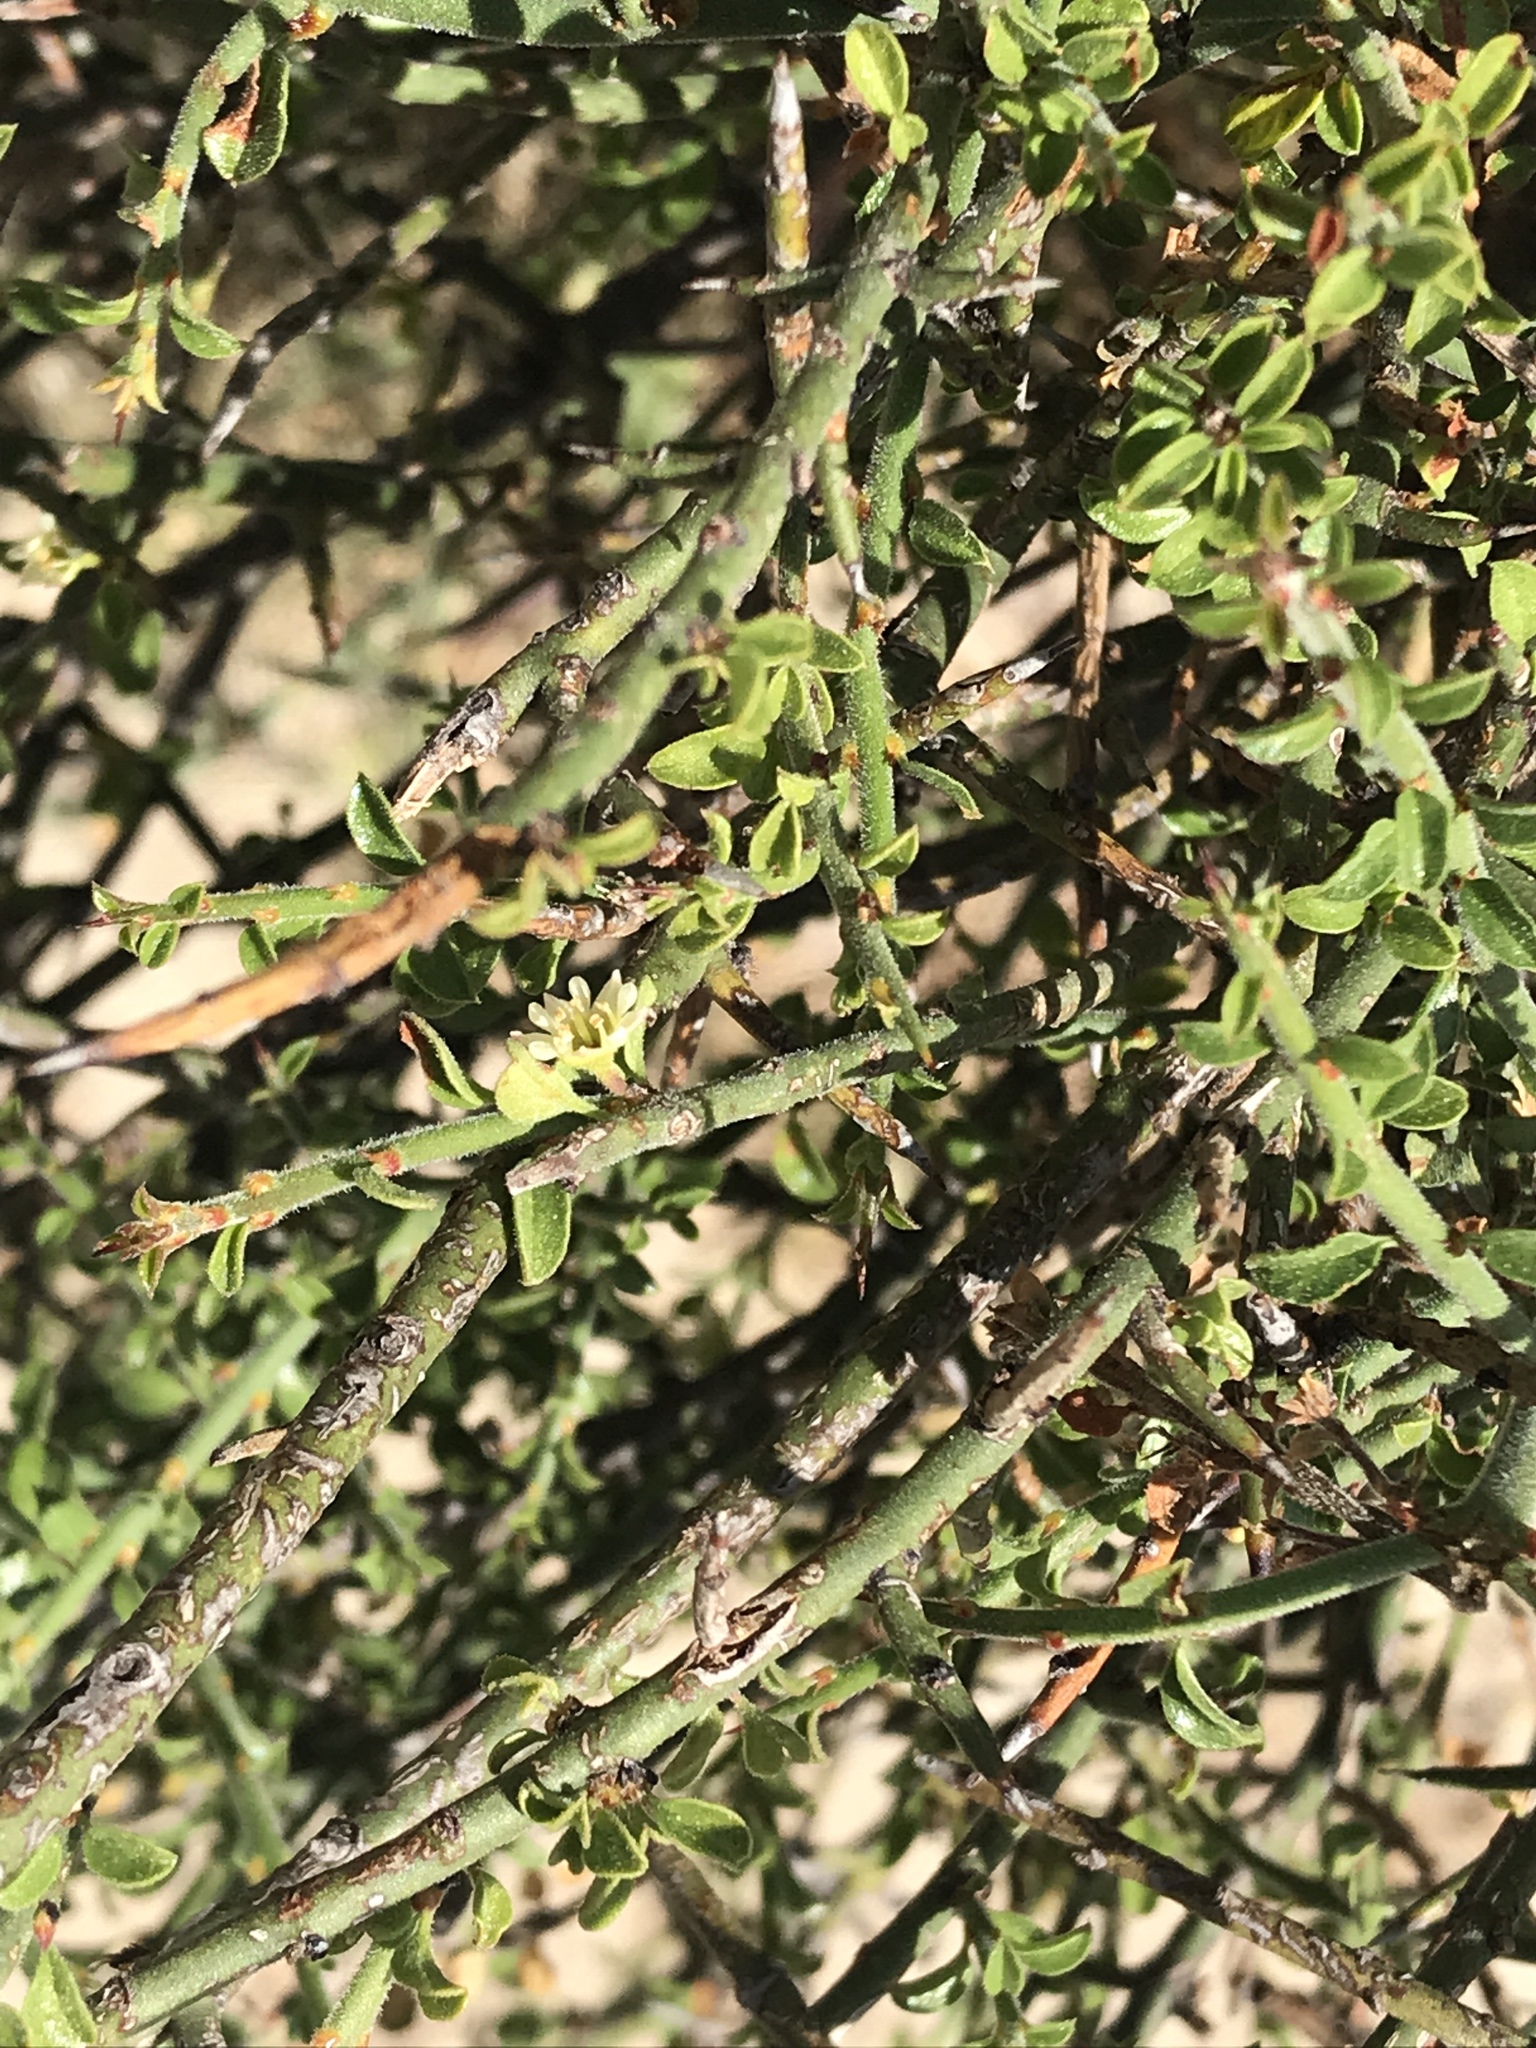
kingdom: Plantae
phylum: Tracheophyta
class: Magnoliopsida
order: Rosales
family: Rhamnaceae
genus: Adolphia
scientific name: Adolphia californica
